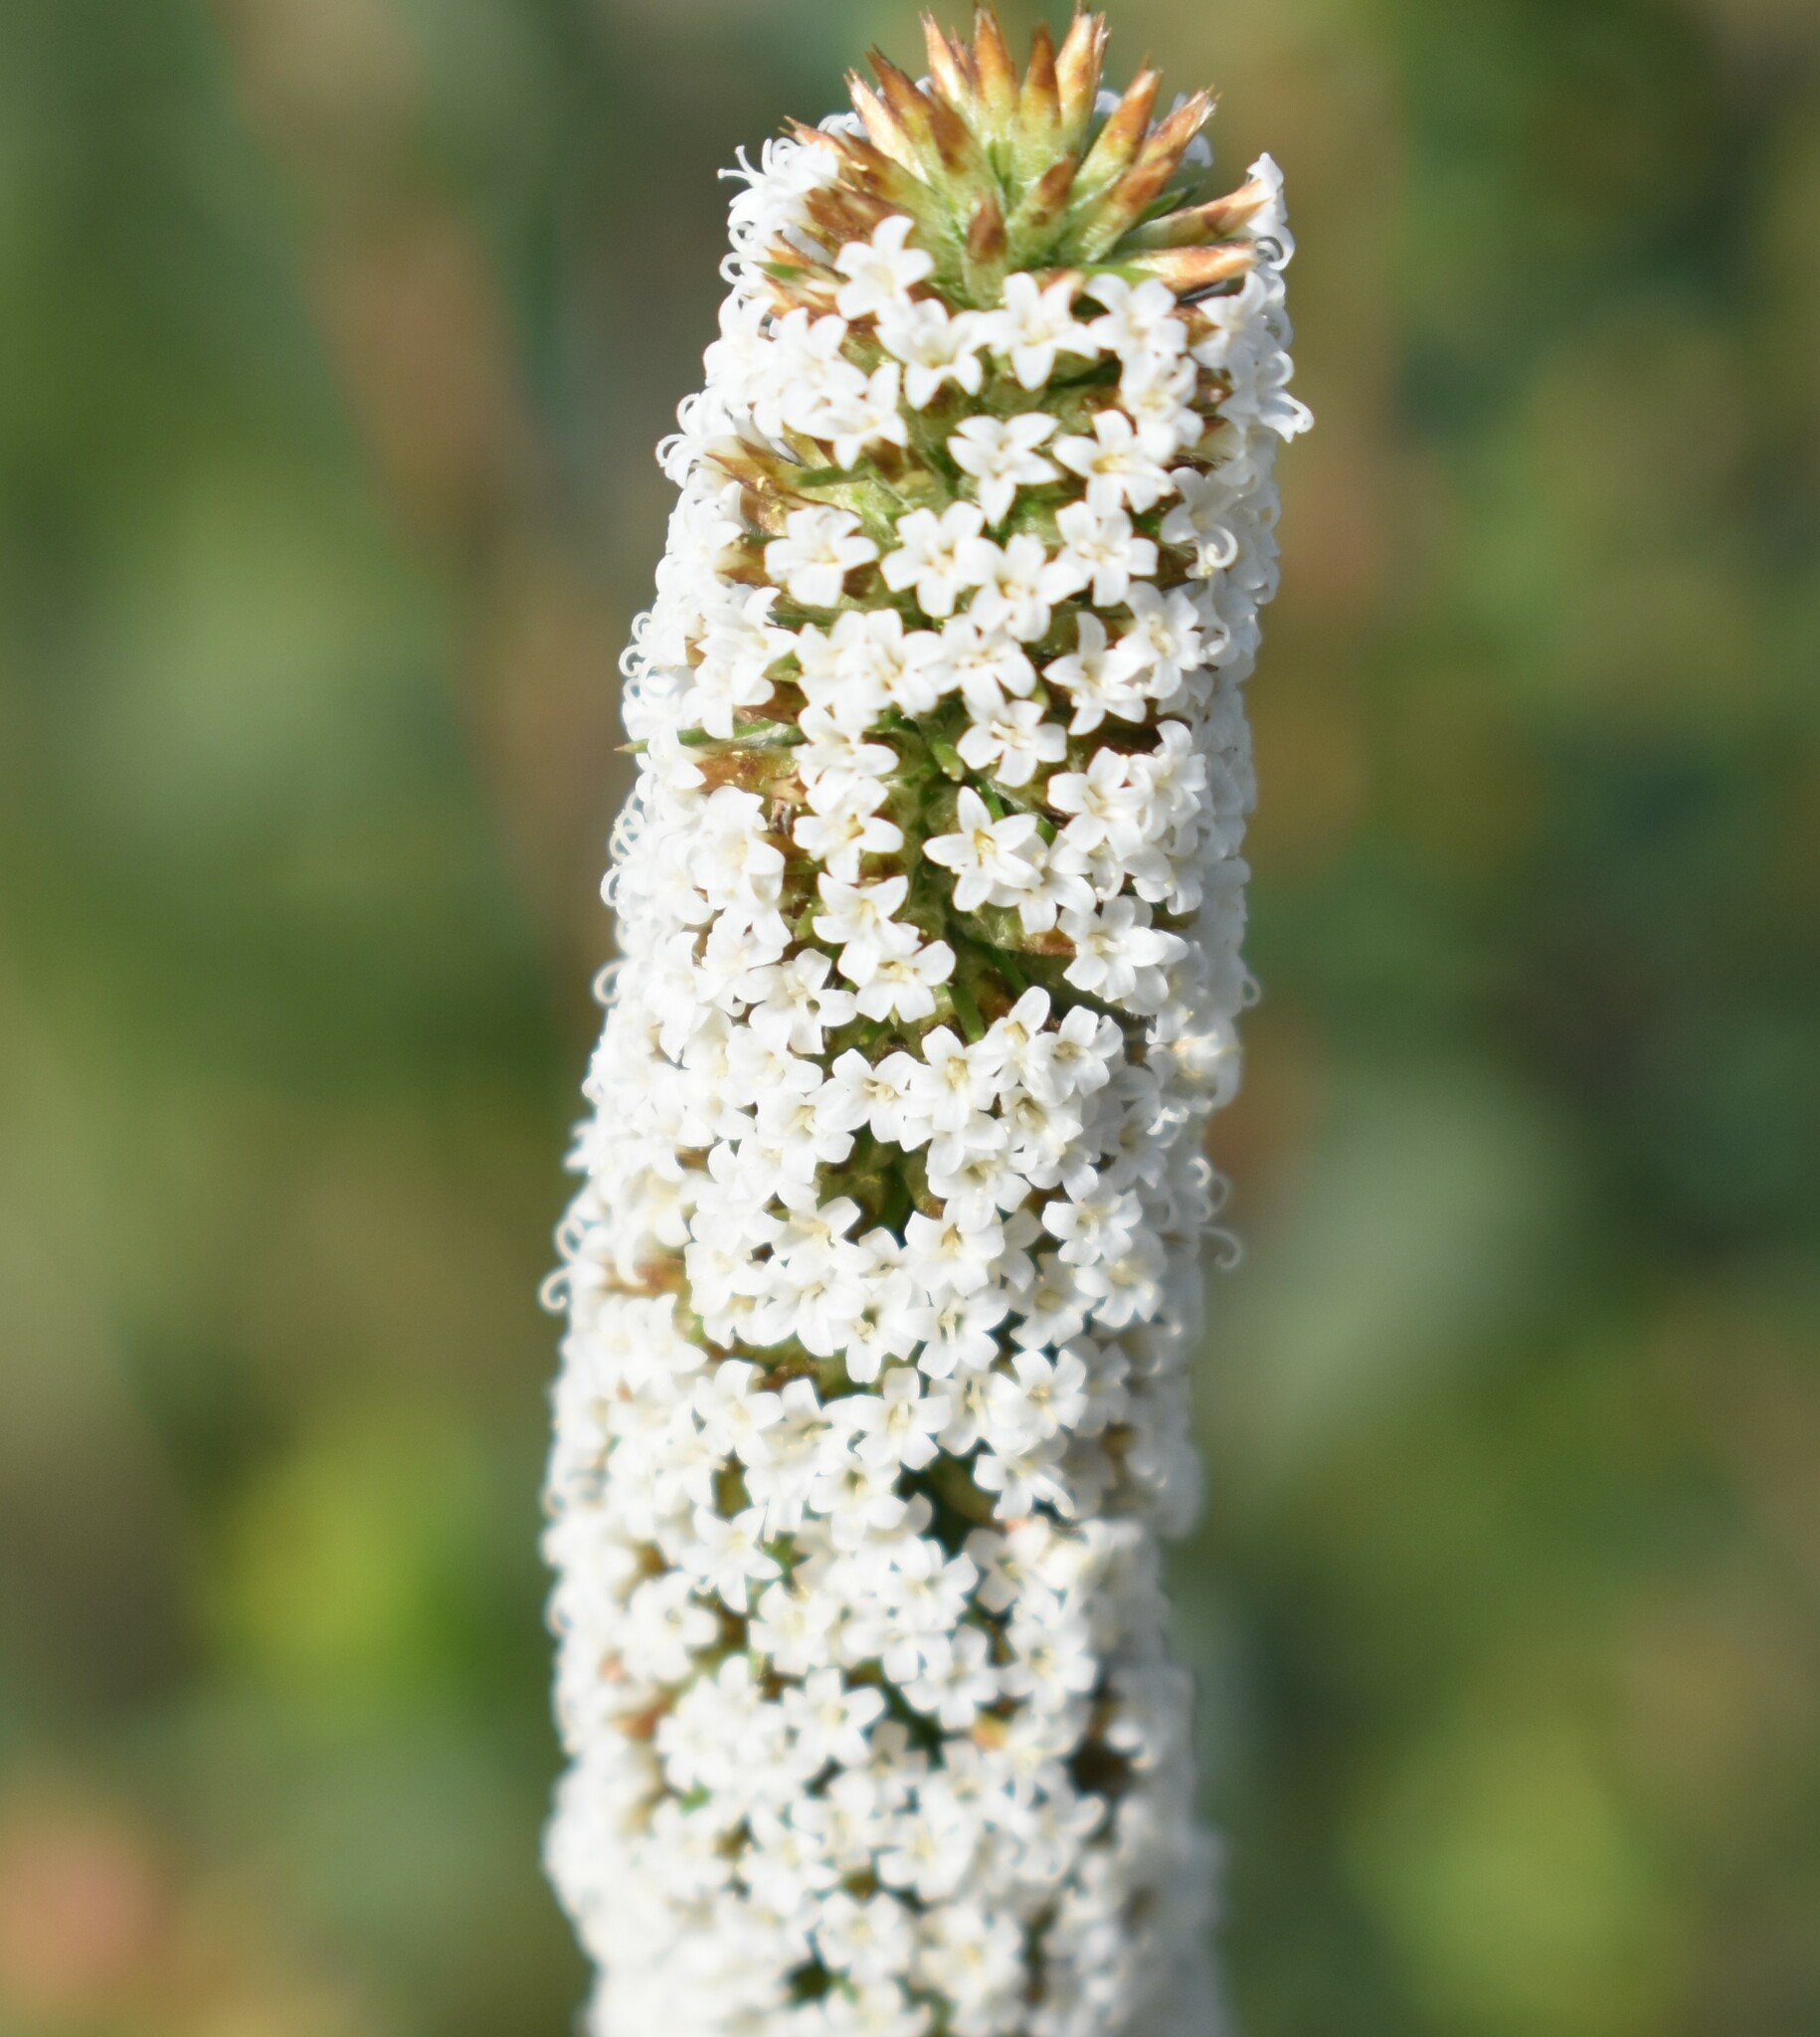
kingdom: Plantae
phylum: Tracheophyta
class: Magnoliopsida
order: Asterales
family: Asteraceae
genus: Stoebe
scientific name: Stoebe alopecuroides
